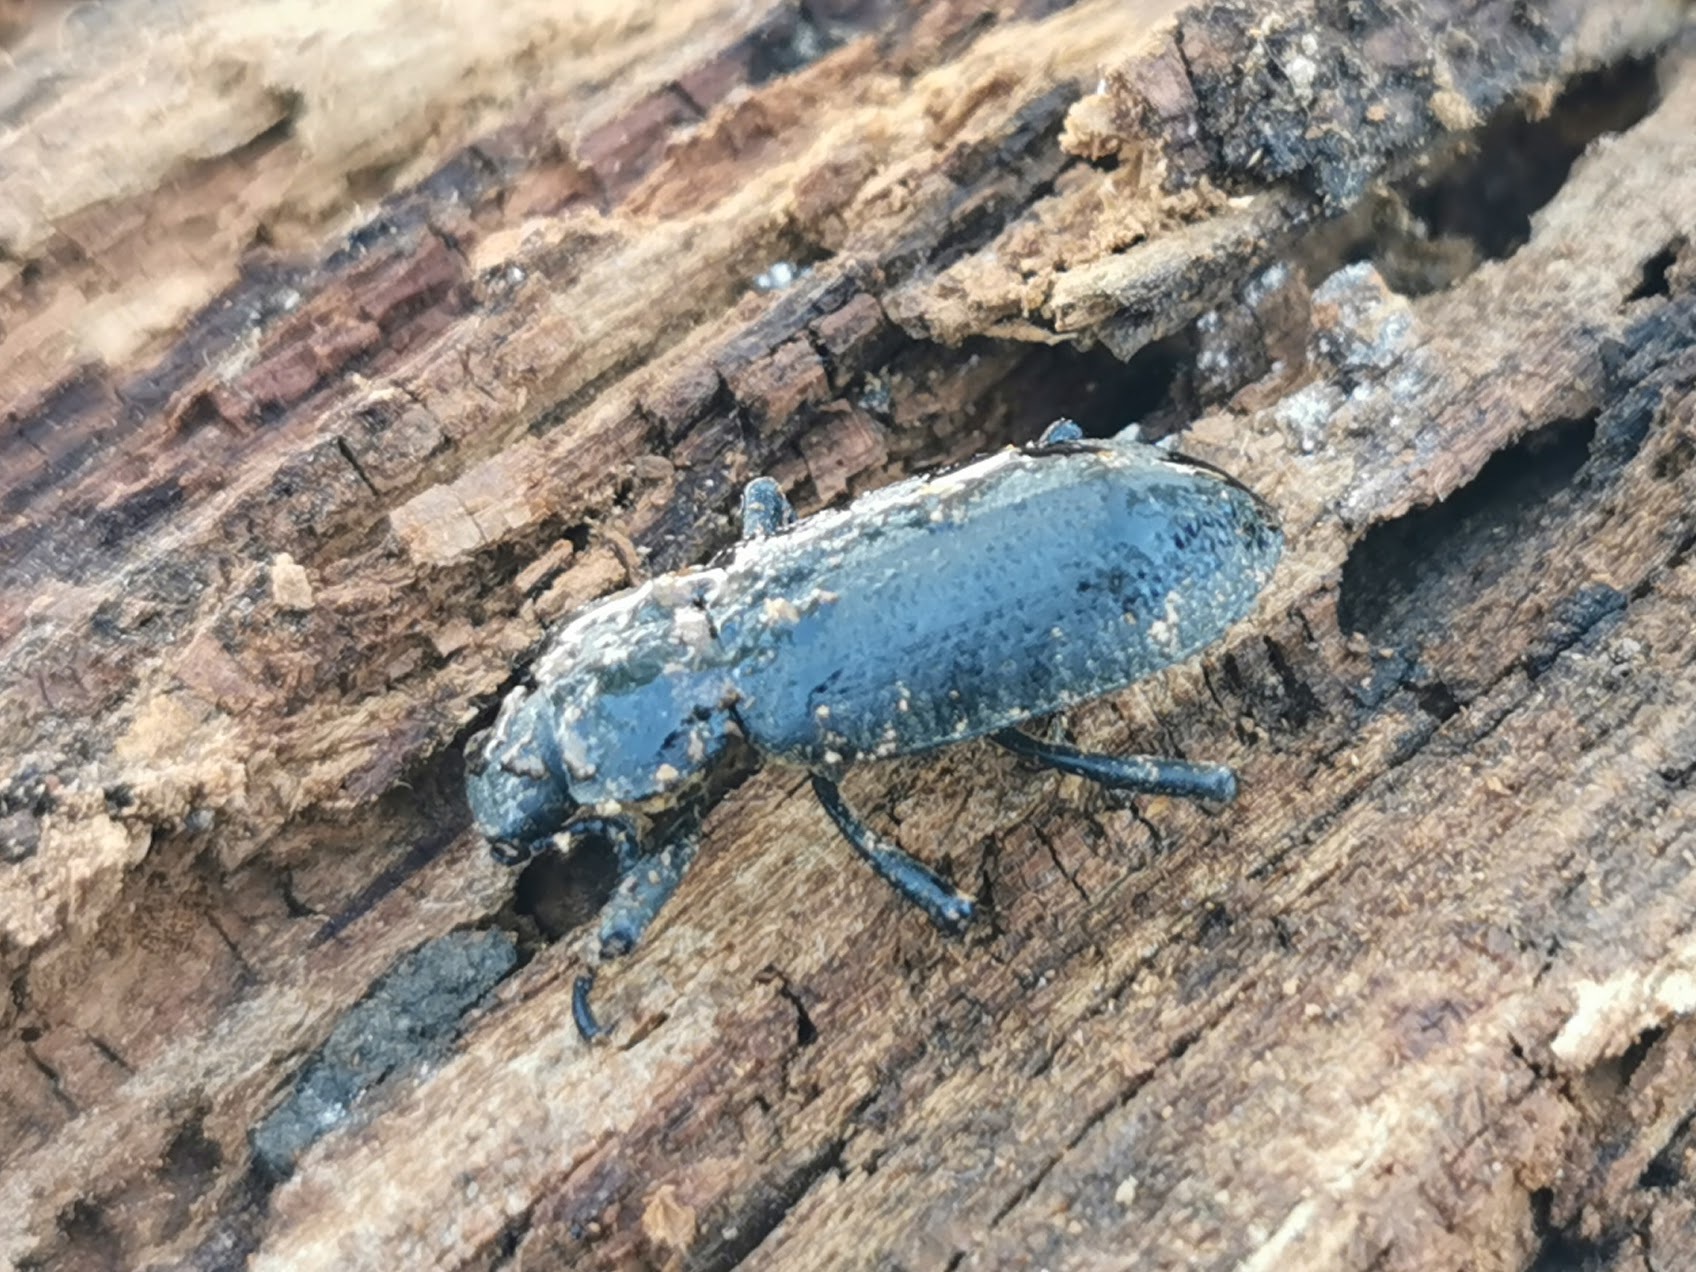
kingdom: Animalia
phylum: Arthropoda
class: Insecta
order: Coleoptera
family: Tenebrionidae
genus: Iphthiminus
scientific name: Iphthiminus serratus
